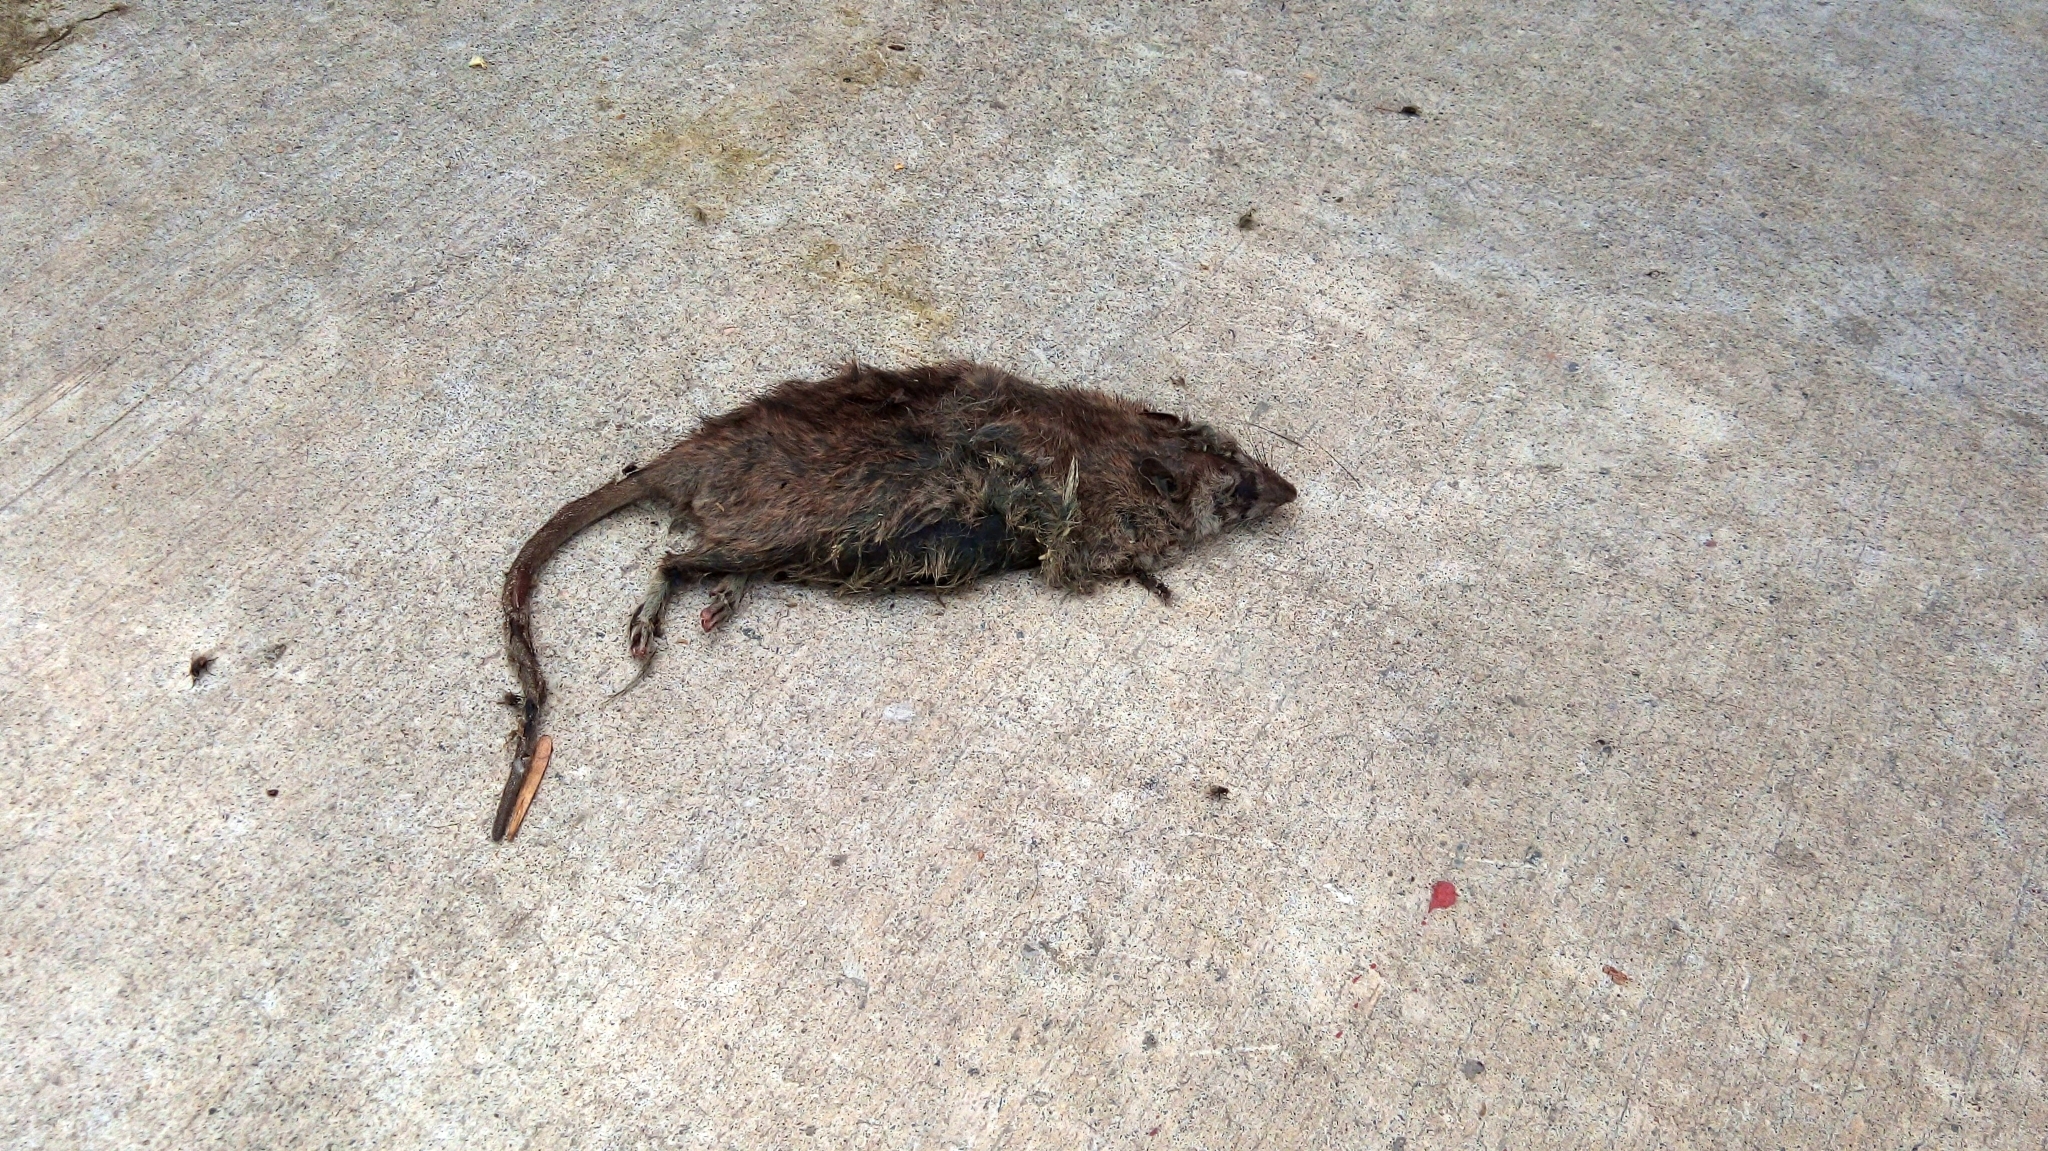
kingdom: Animalia
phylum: Chordata
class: Mammalia
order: Rodentia
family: Muridae
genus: Rattus
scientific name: Rattus rattus
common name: Black rat
